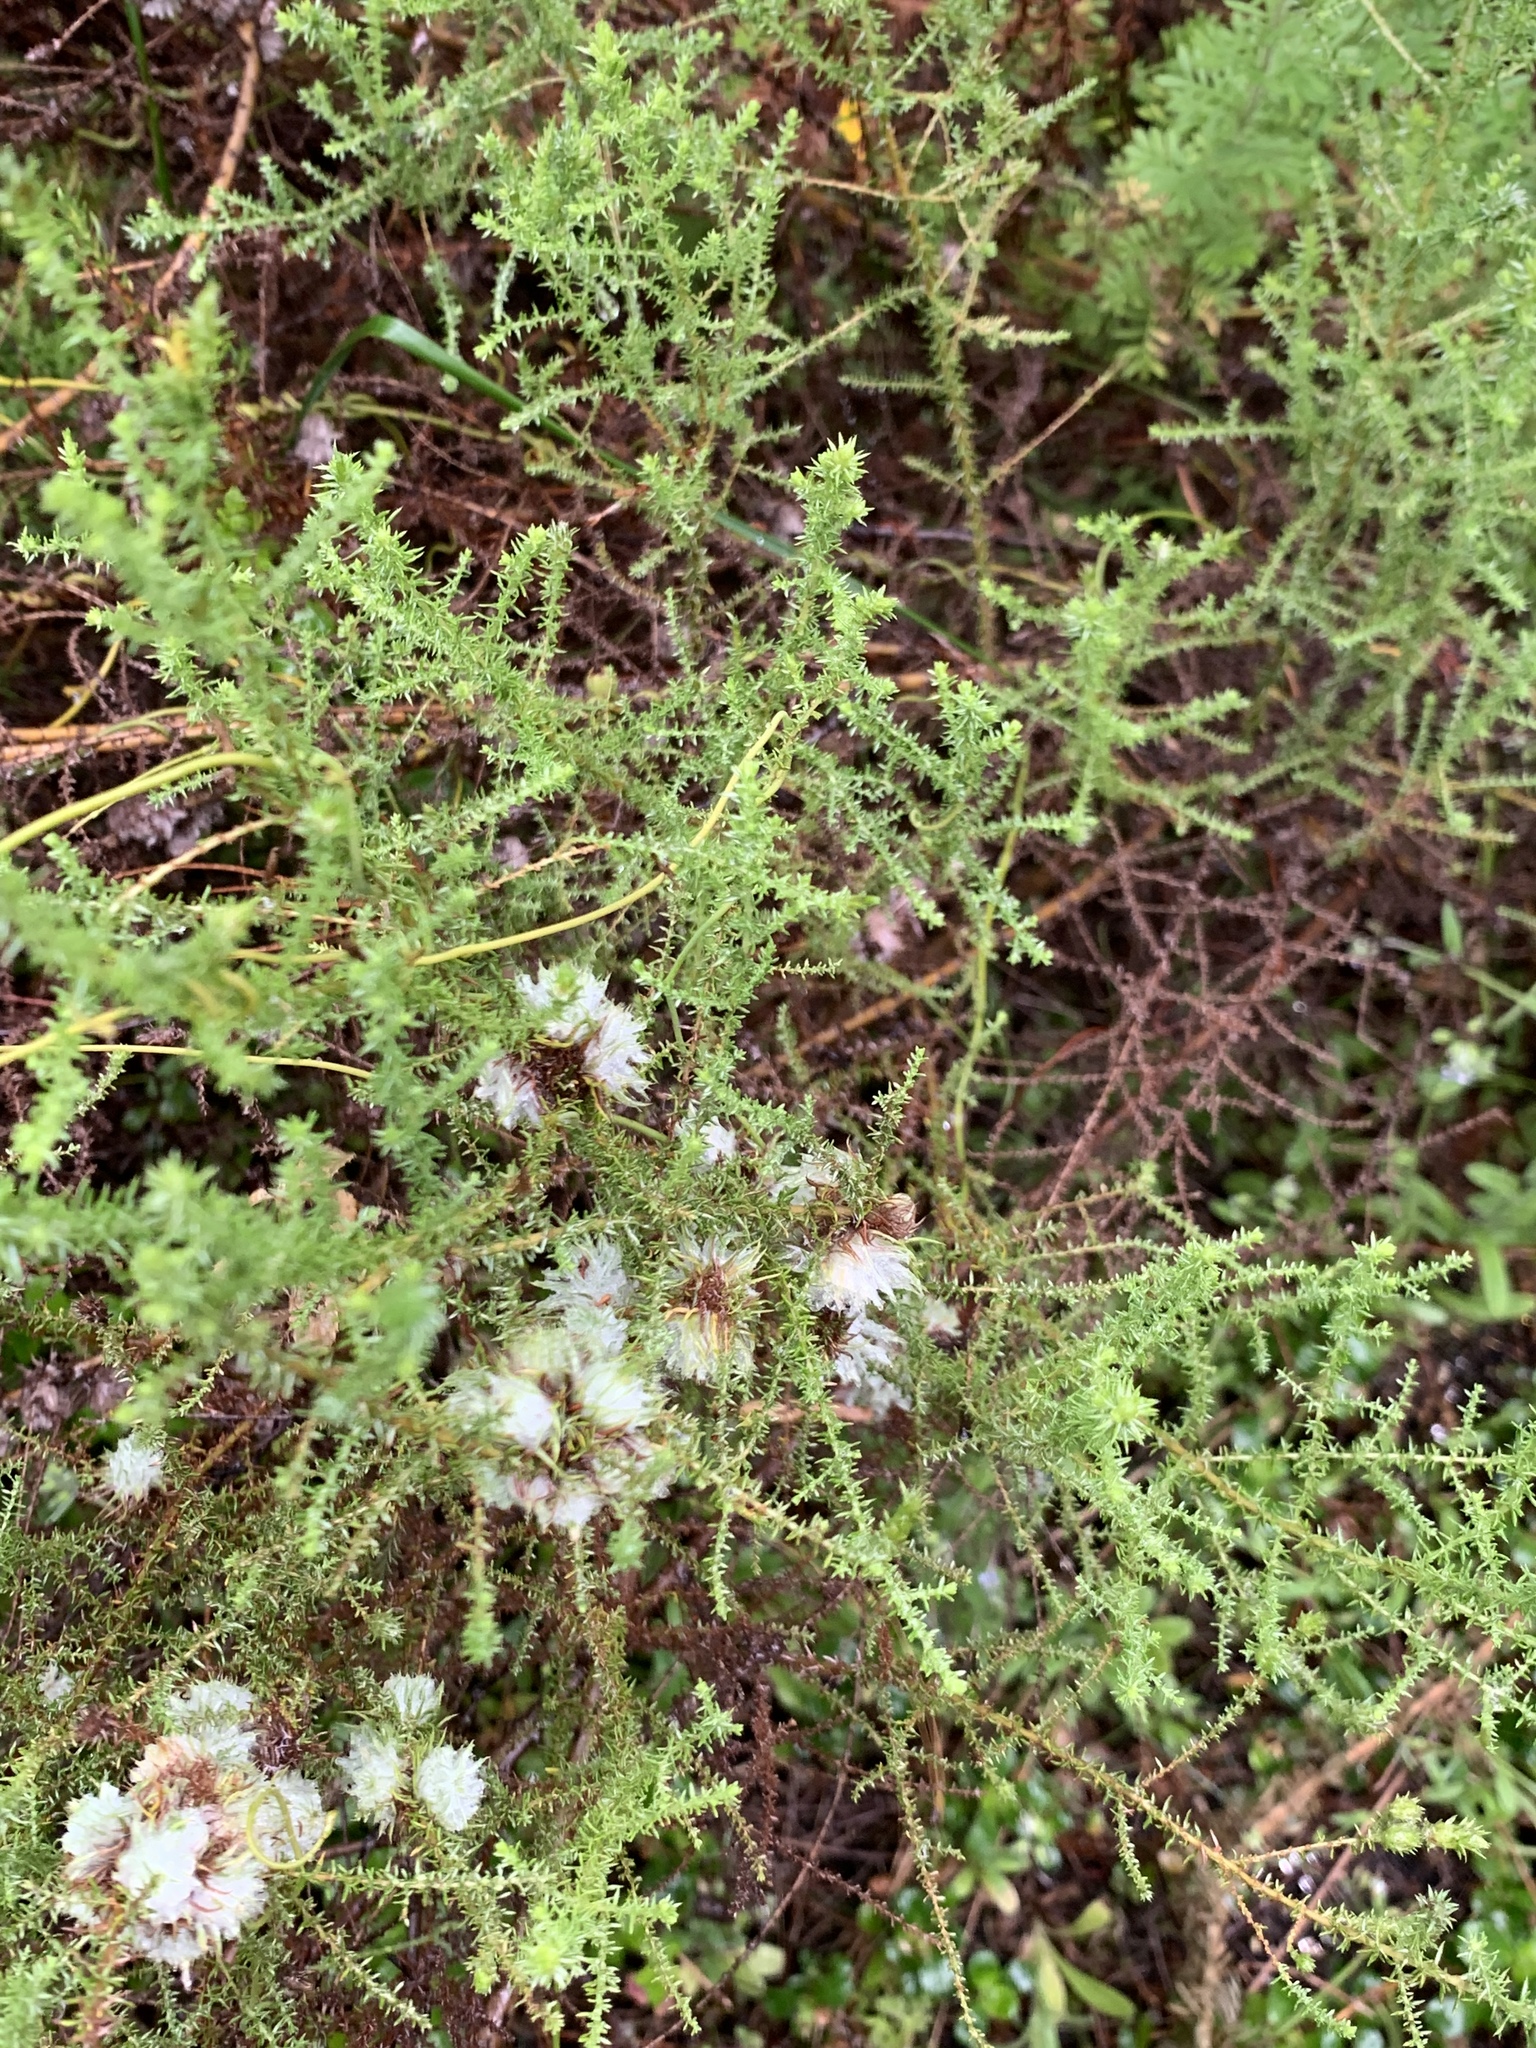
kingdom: Plantae
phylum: Tracheophyta
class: Magnoliopsida
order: Asterales
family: Asteraceae
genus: Seriphium
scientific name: Seriphium cinereum
